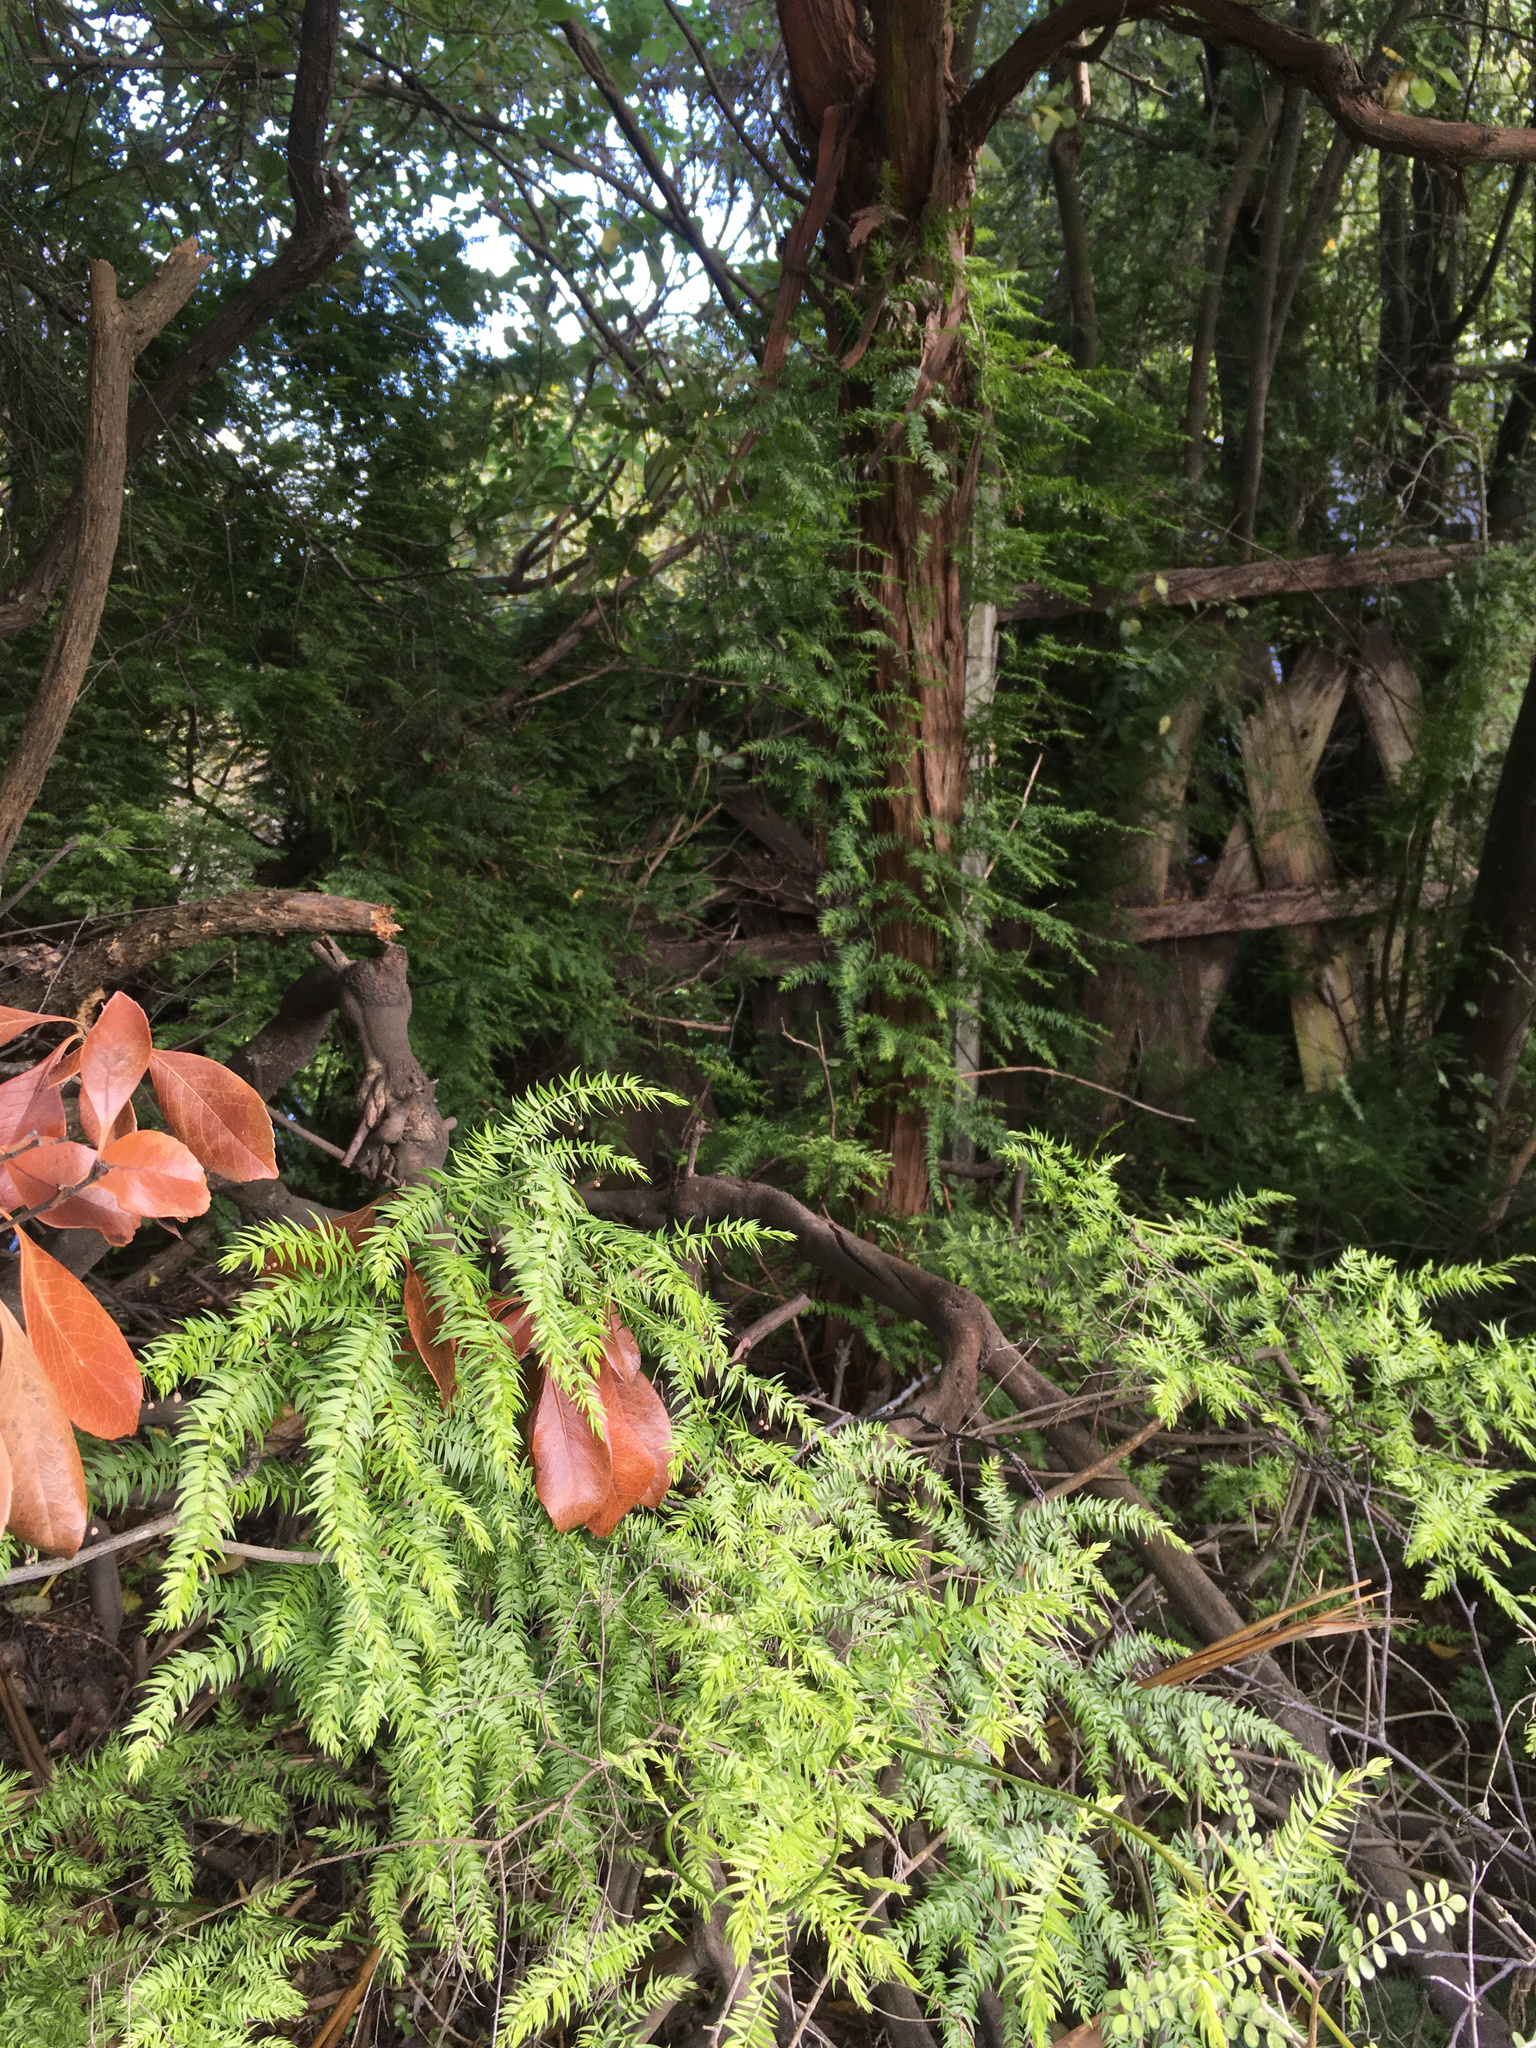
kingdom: Plantae
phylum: Tracheophyta
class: Liliopsida
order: Asparagales
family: Asparagaceae
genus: Asparagus
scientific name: Asparagus scandens
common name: Asparagus-fern
